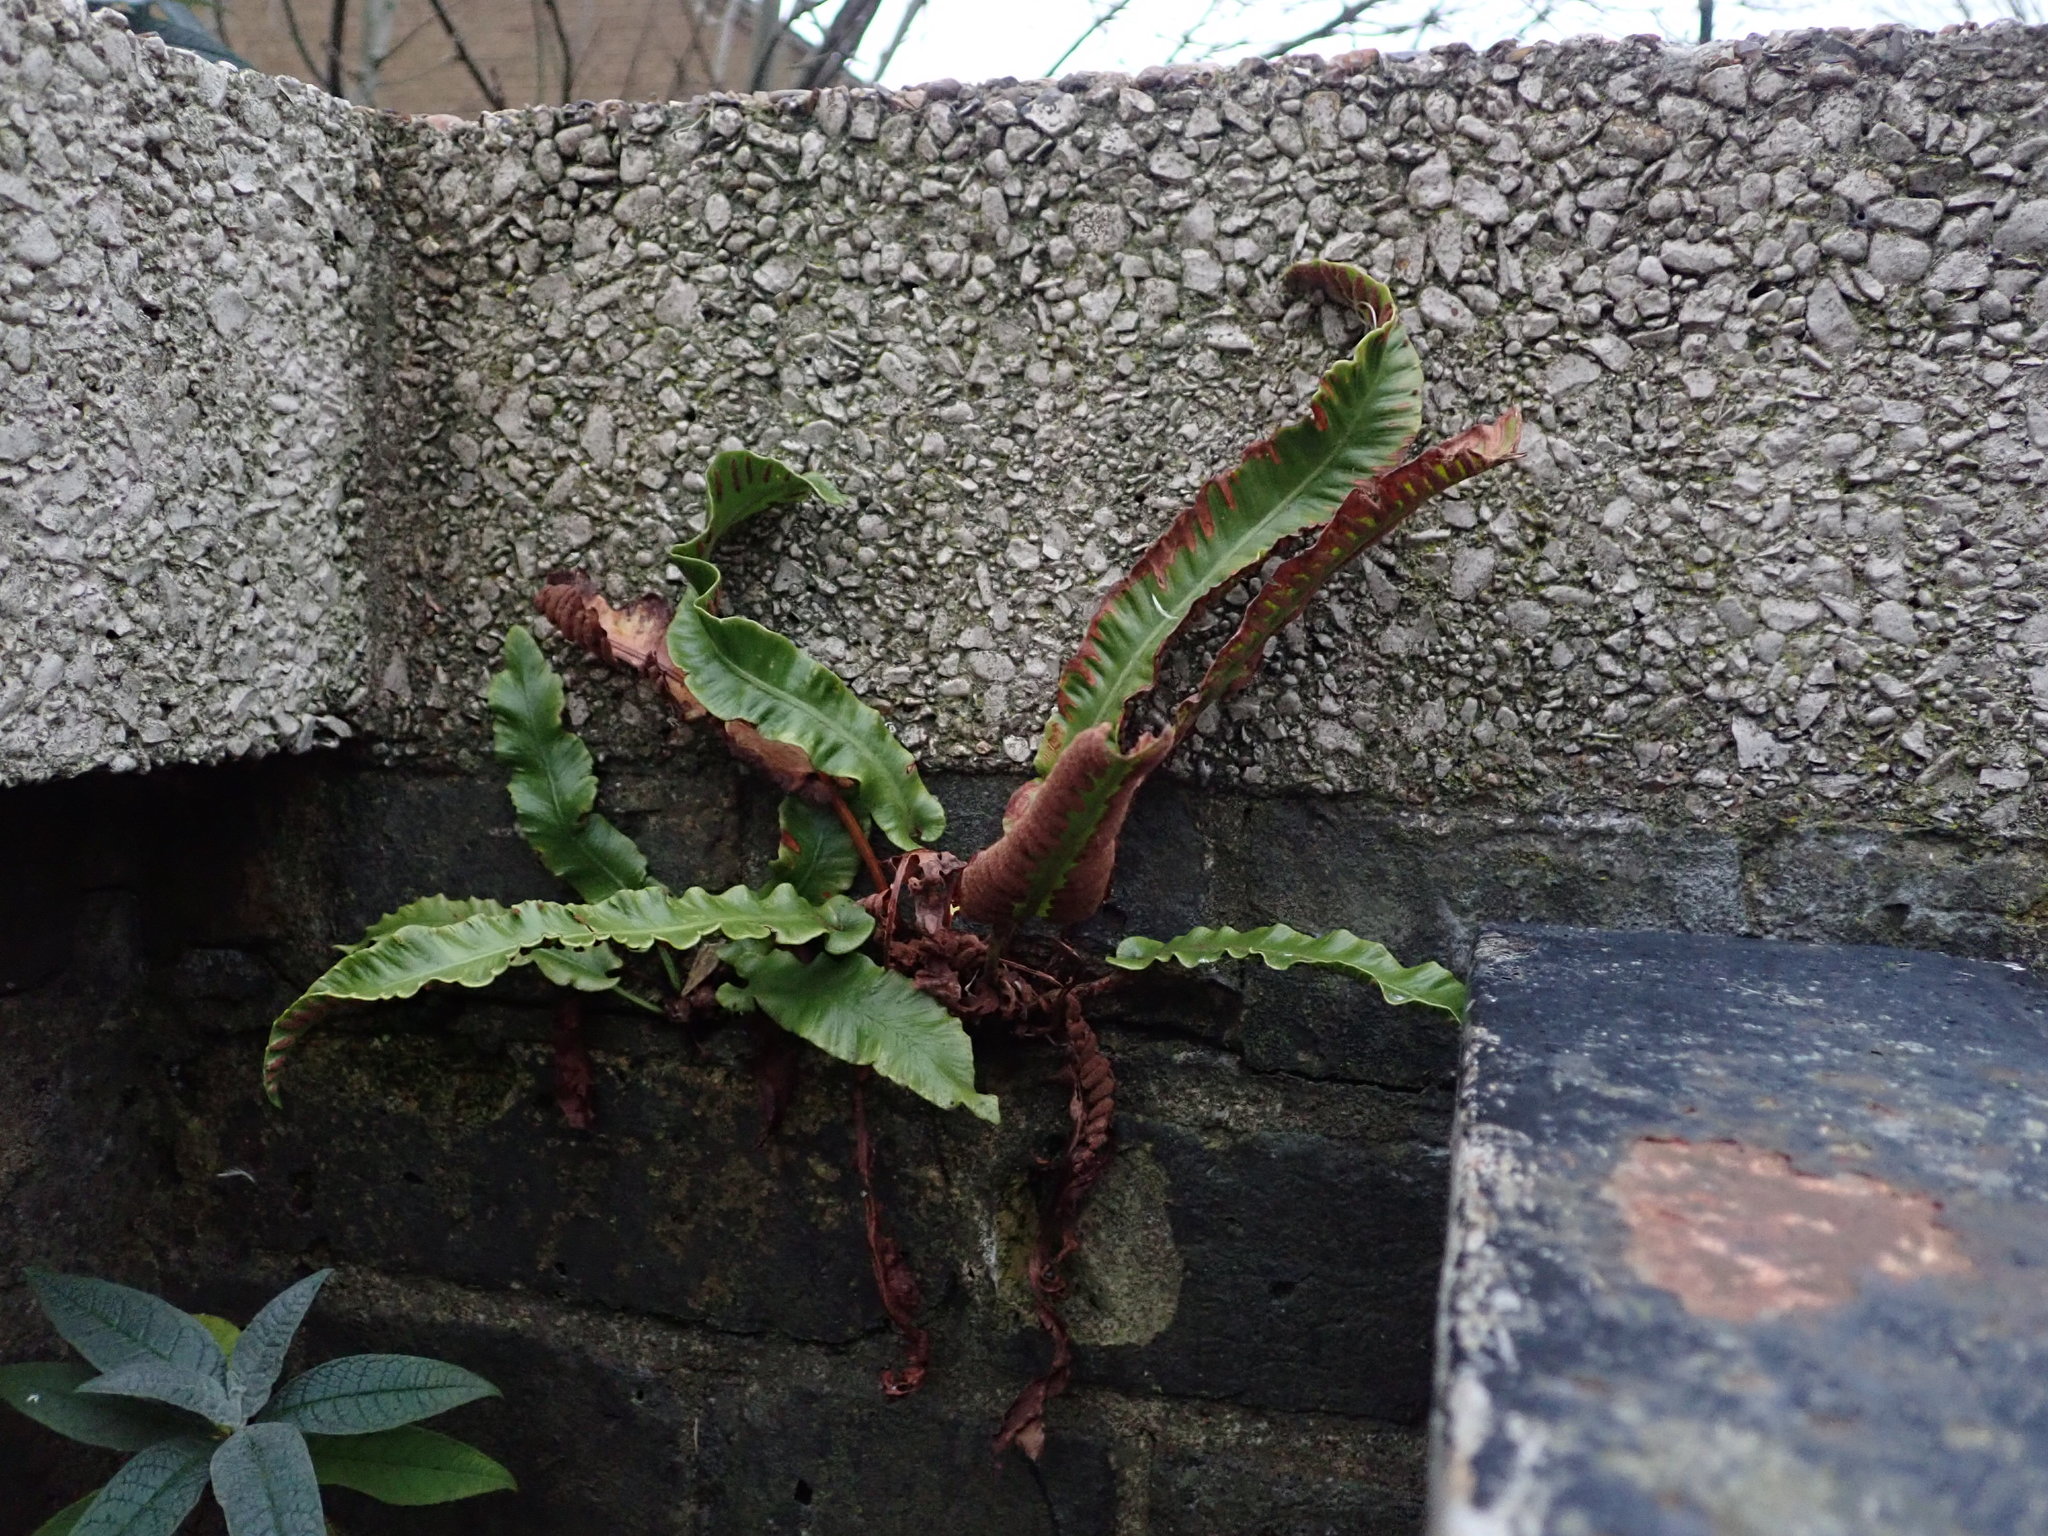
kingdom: Plantae
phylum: Tracheophyta
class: Polypodiopsida
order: Polypodiales
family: Aspleniaceae
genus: Asplenium
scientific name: Asplenium scolopendrium
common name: Hart's-tongue fern
